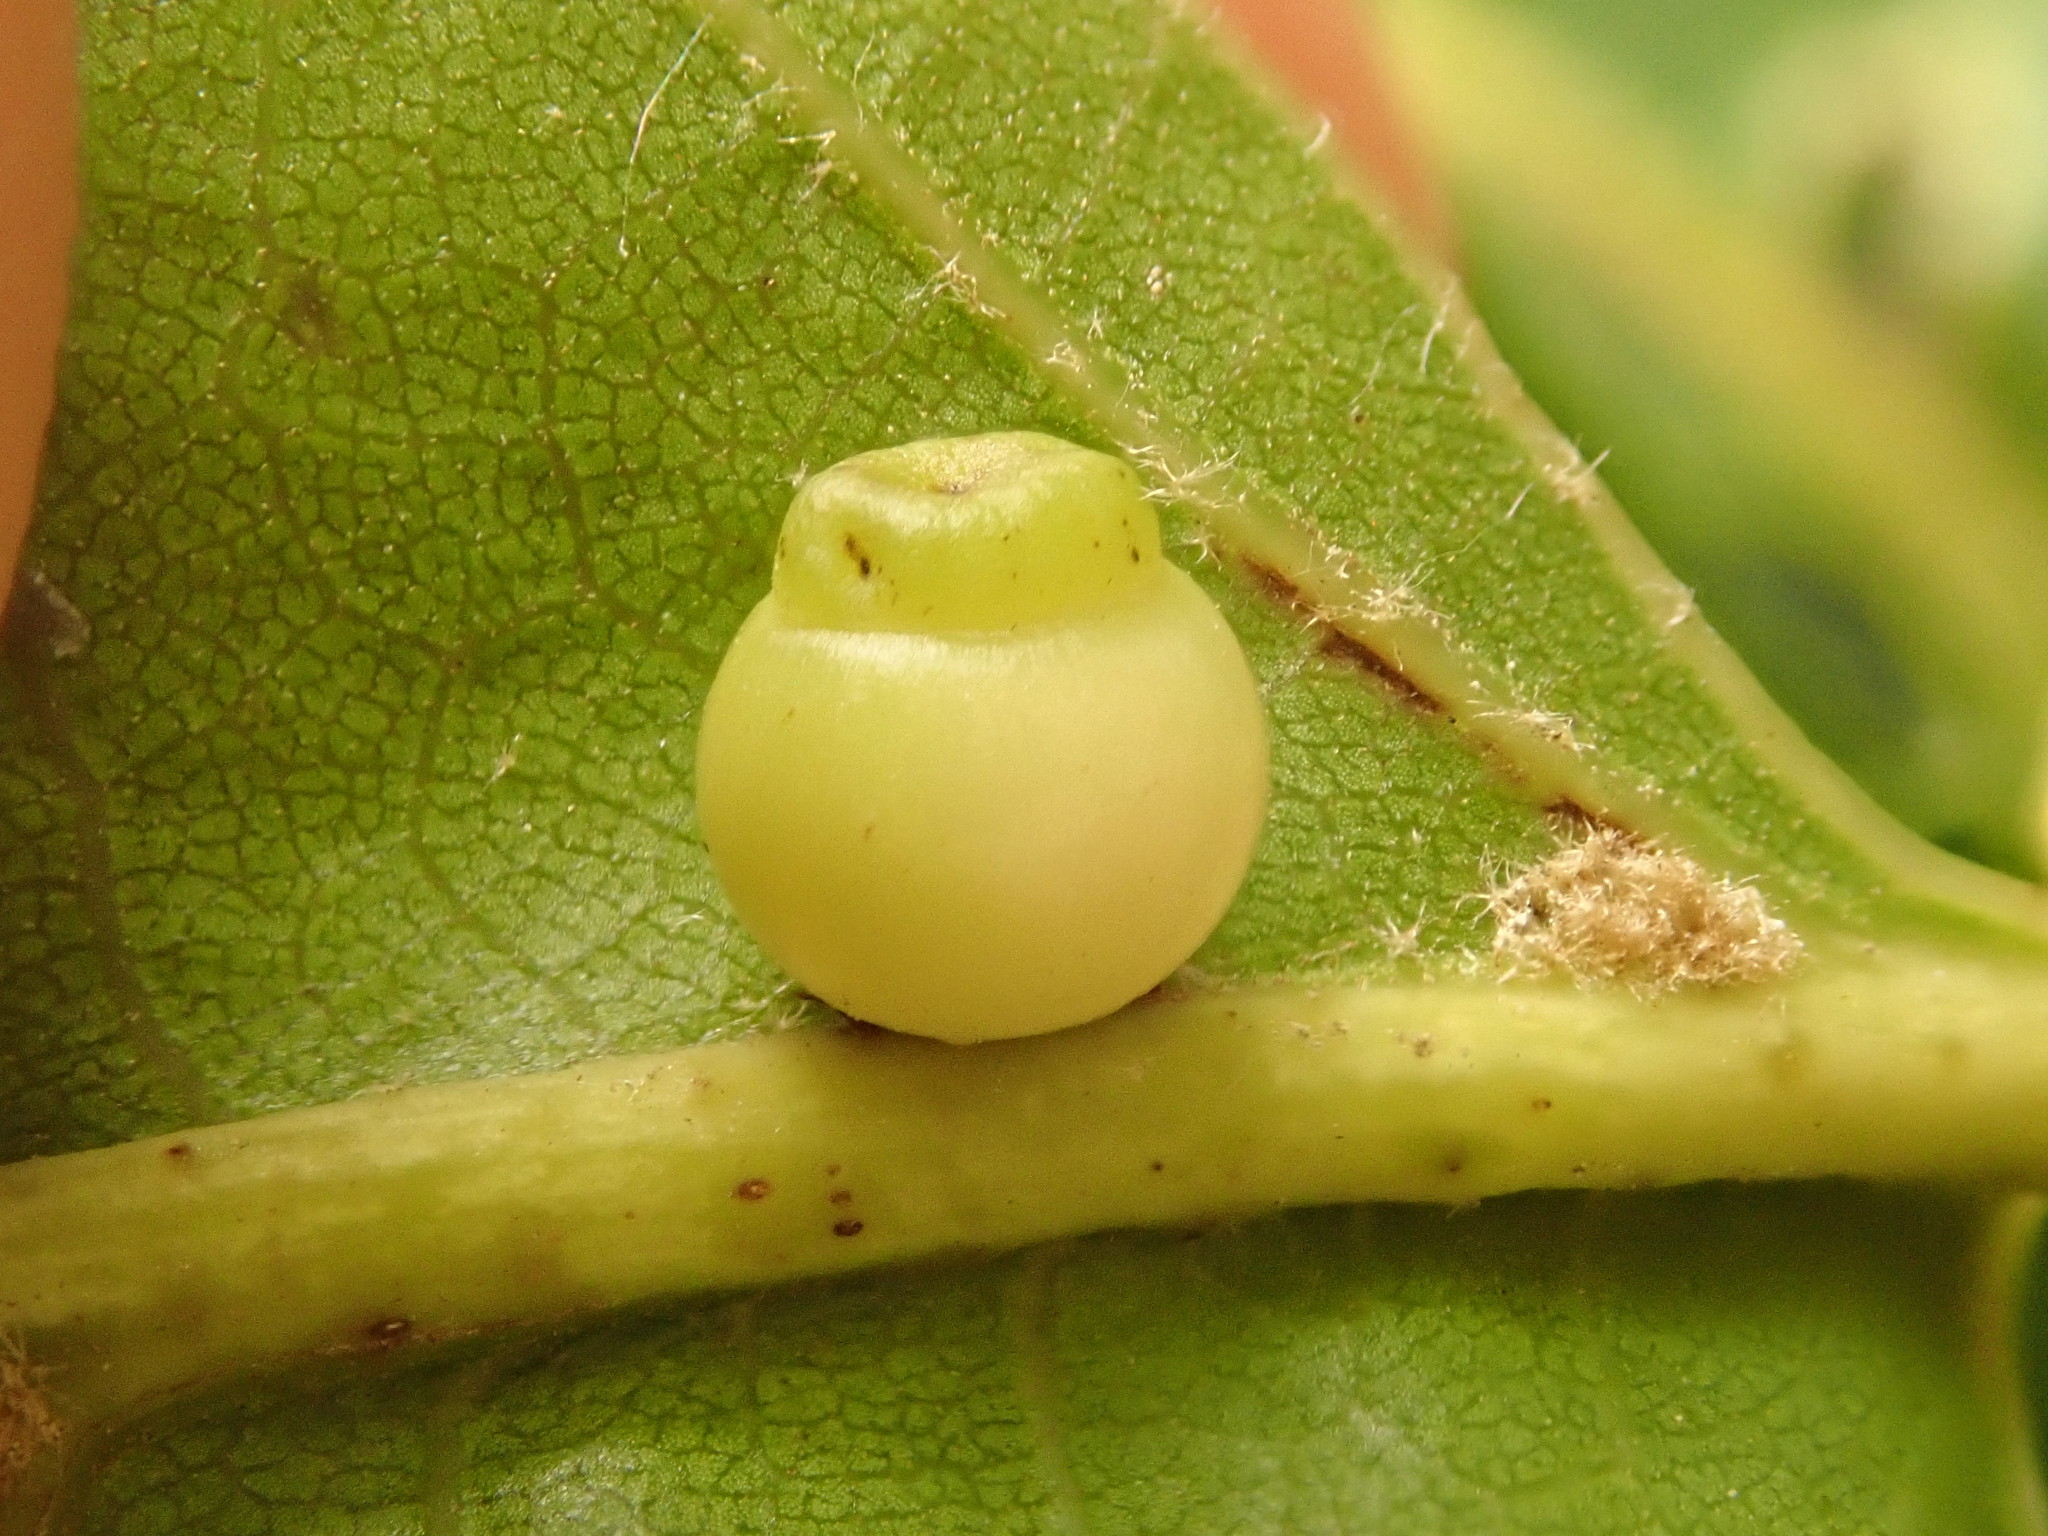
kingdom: Animalia
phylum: Arthropoda
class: Insecta
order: Hymenoptera
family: Cynipidae
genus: Kokkocynips
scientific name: Kokkocynips rileyi
